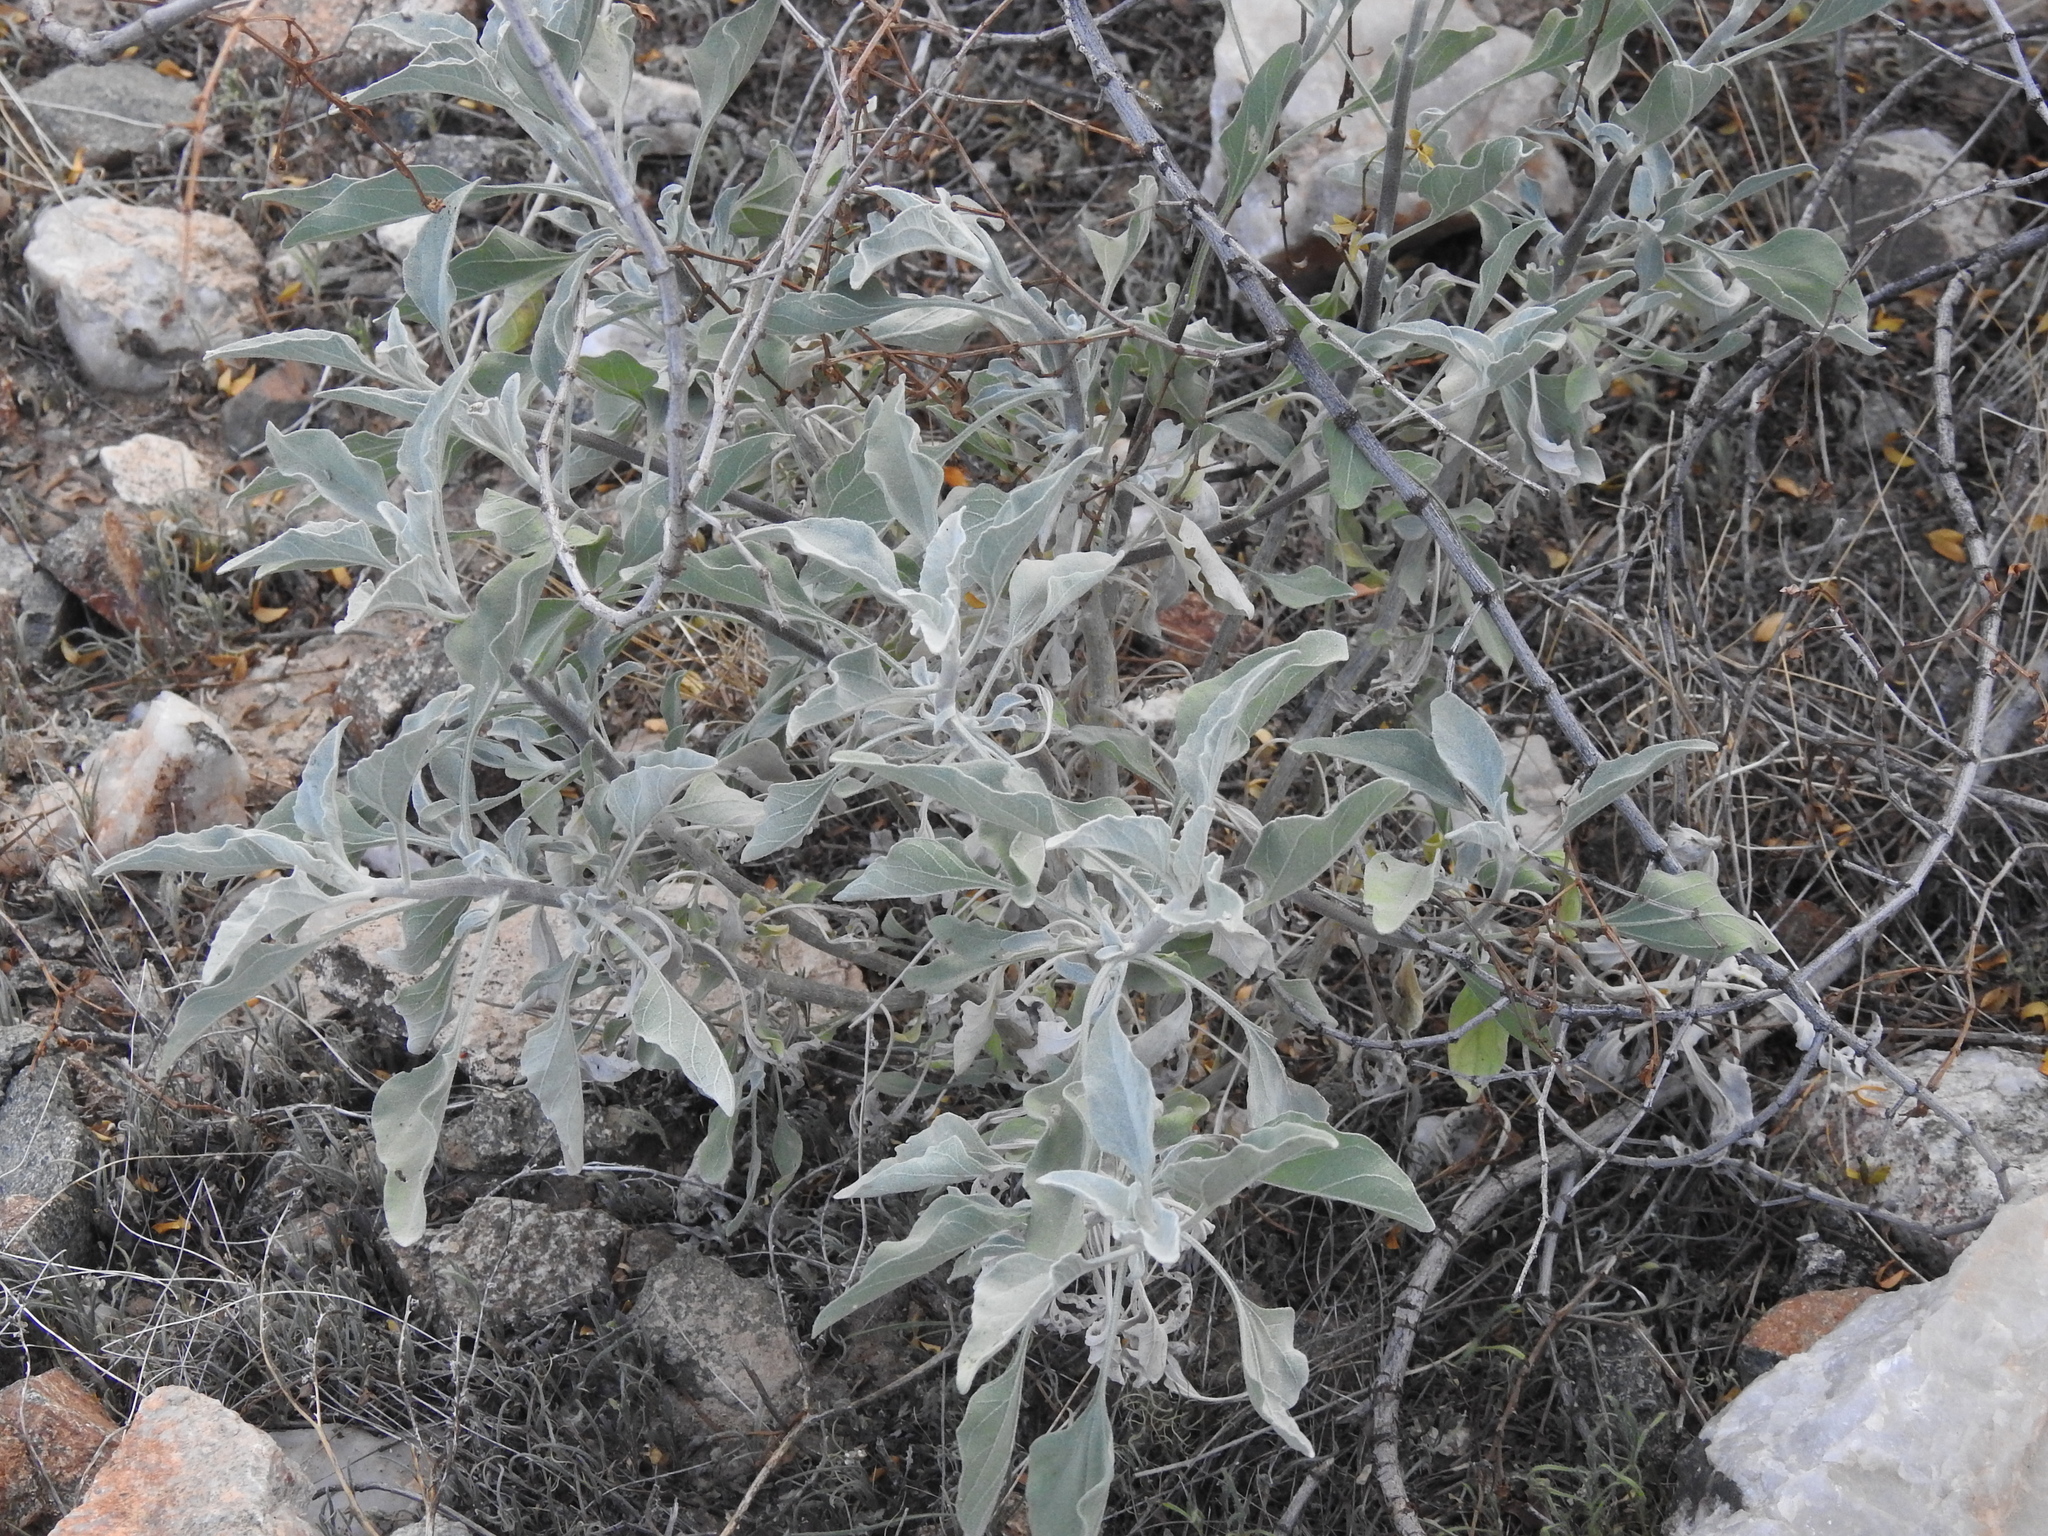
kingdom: Plantae
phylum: Tracheophyta
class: Magnoliopsida
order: Asterales
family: Asteraceae
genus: Encelia
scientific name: Encelia farinosa
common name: Brittlebush
